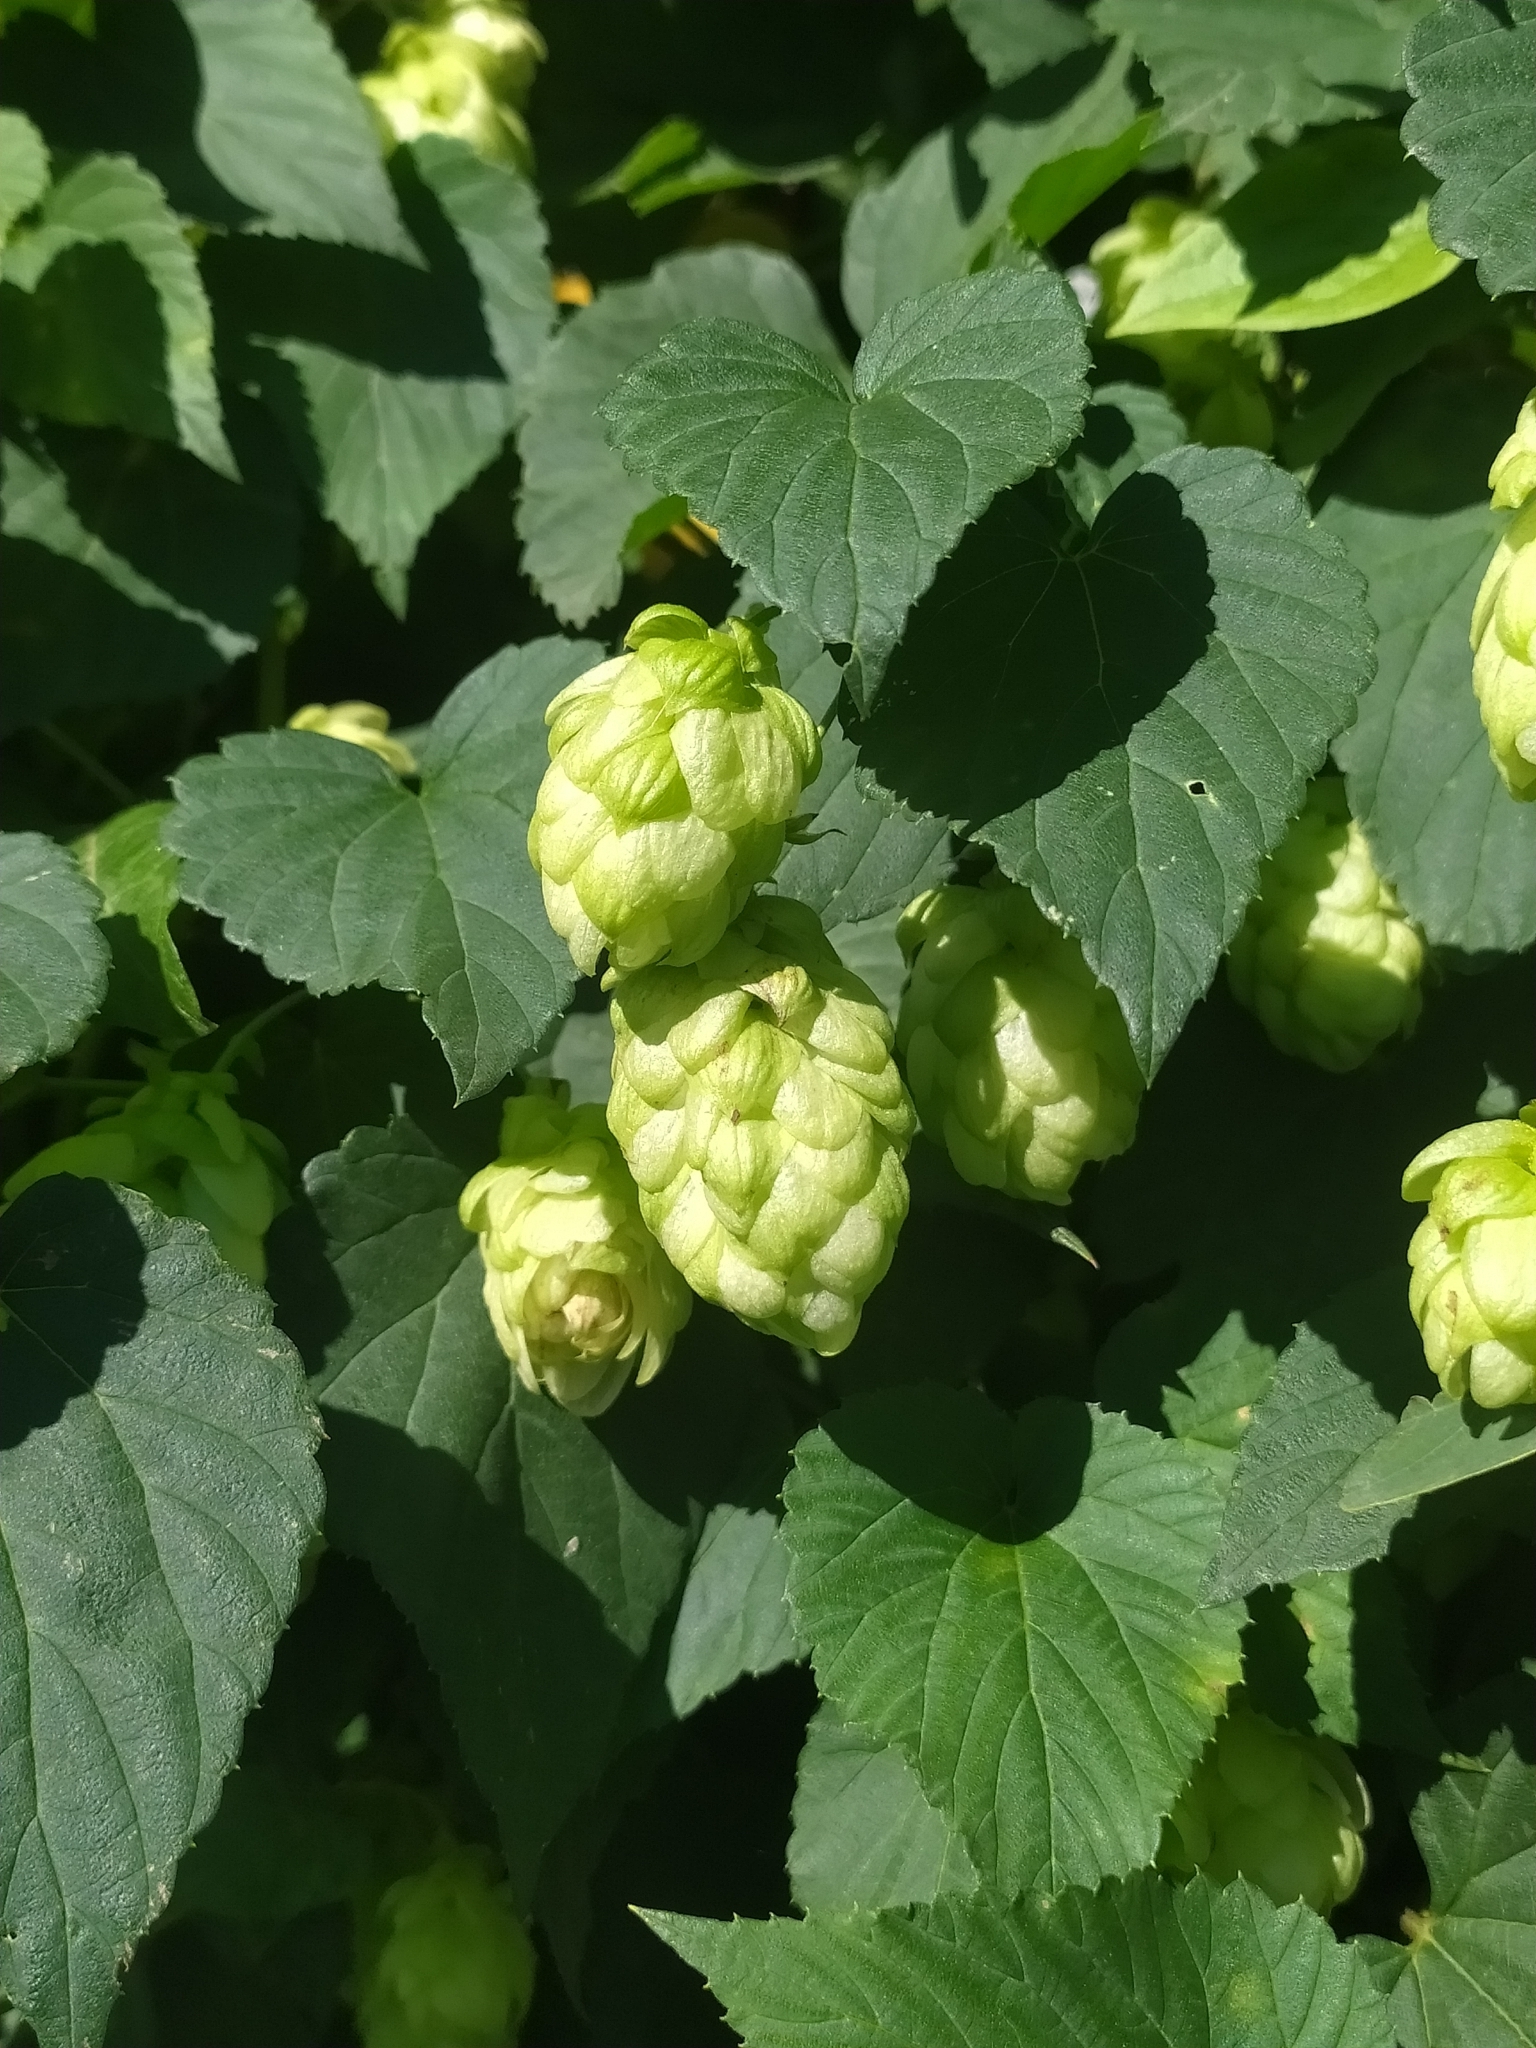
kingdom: Plantae
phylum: Tracheophyta
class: Magnoliopsida
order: Rosales
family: Cannabaceae
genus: Humulus
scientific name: Humulus lupulus
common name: Hop
